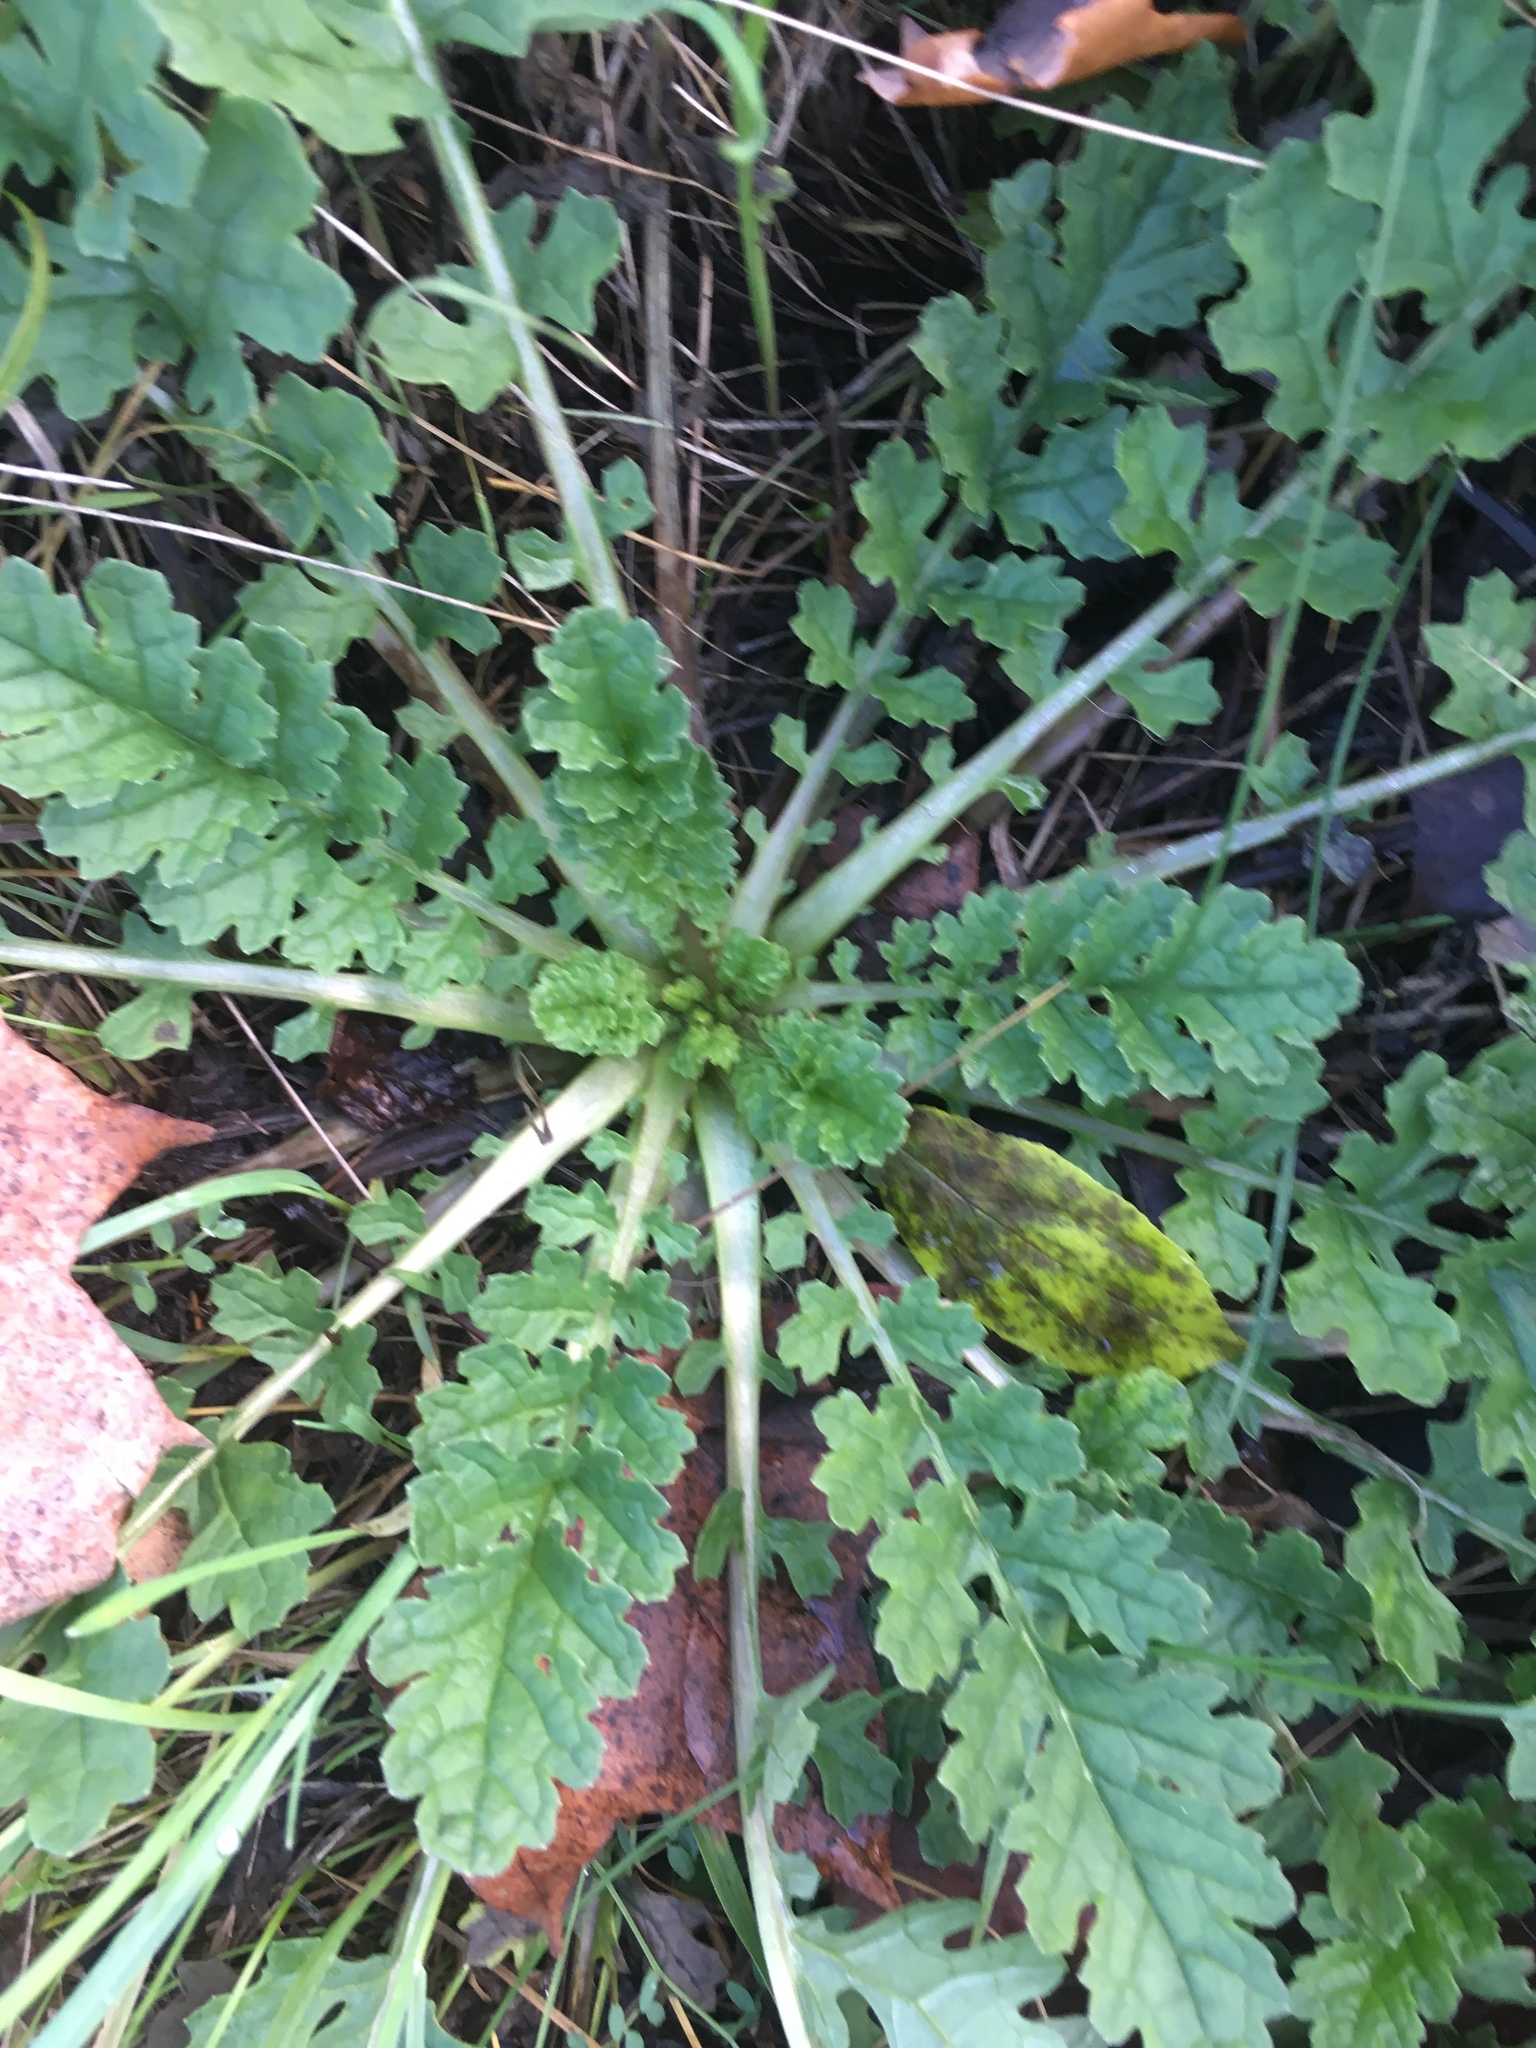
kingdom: Plantae
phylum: Tracheophyta
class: Magnoliopsida
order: Asterales
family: Asteraceae
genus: Jacobaea
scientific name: Jacobaea vulgaris
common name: Stinking willie
